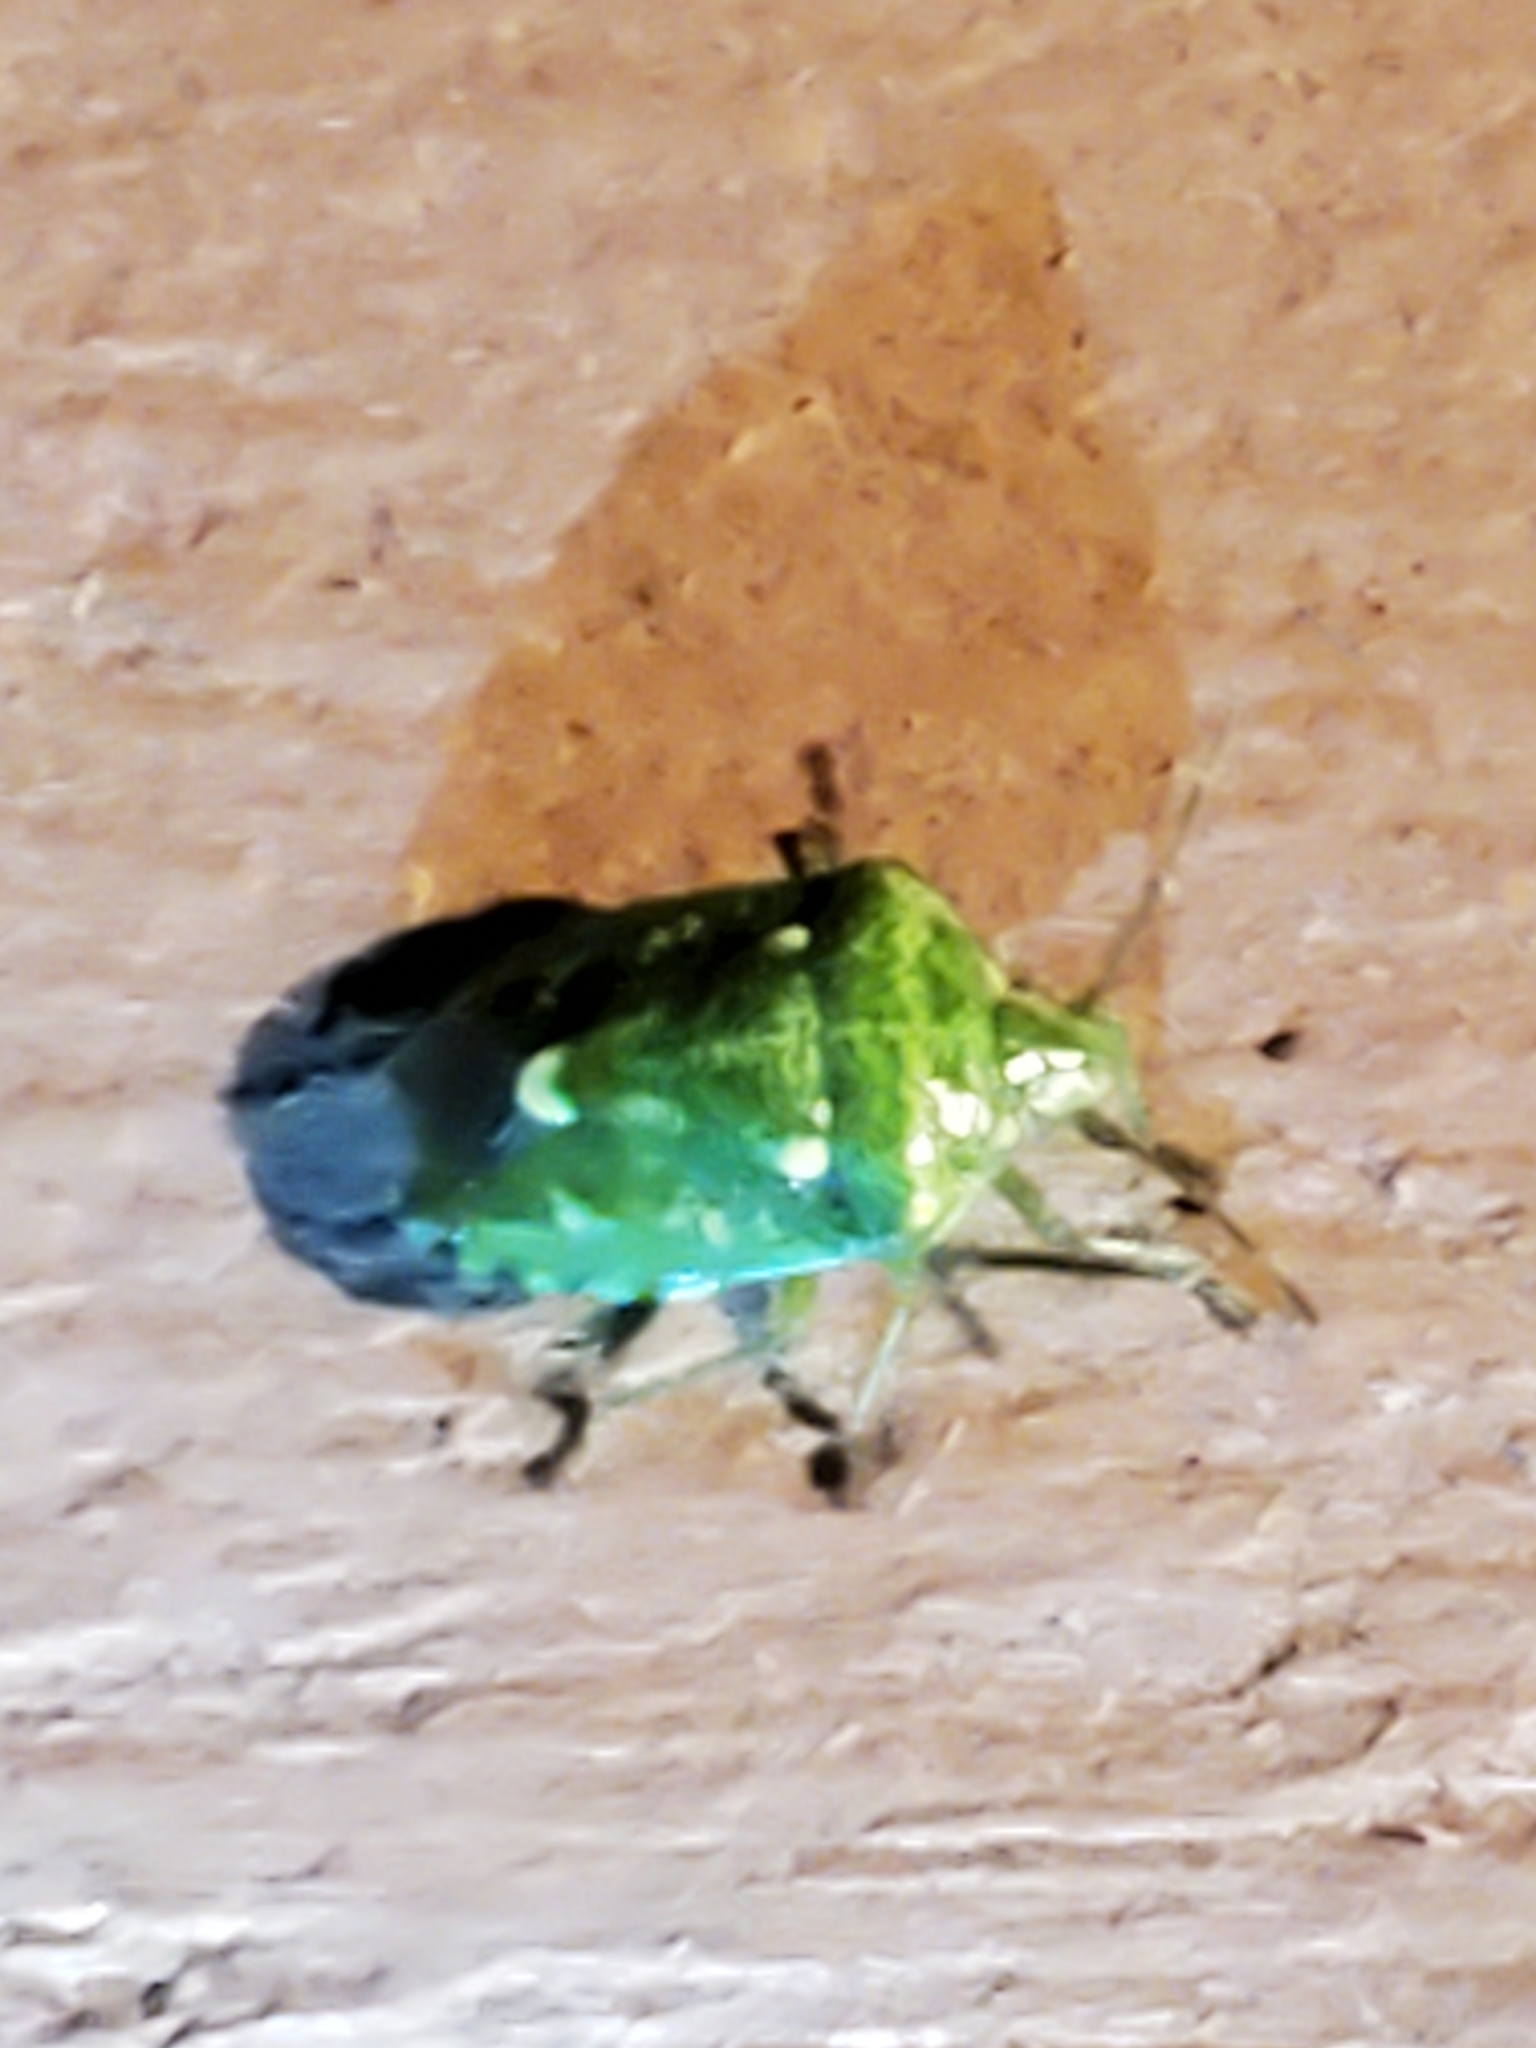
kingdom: Animalia
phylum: Arthropoda
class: Insecta
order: Hemiptera
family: Pentatomidae
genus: Banasa
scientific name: Banasa euchlora
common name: Cedar berry bug
